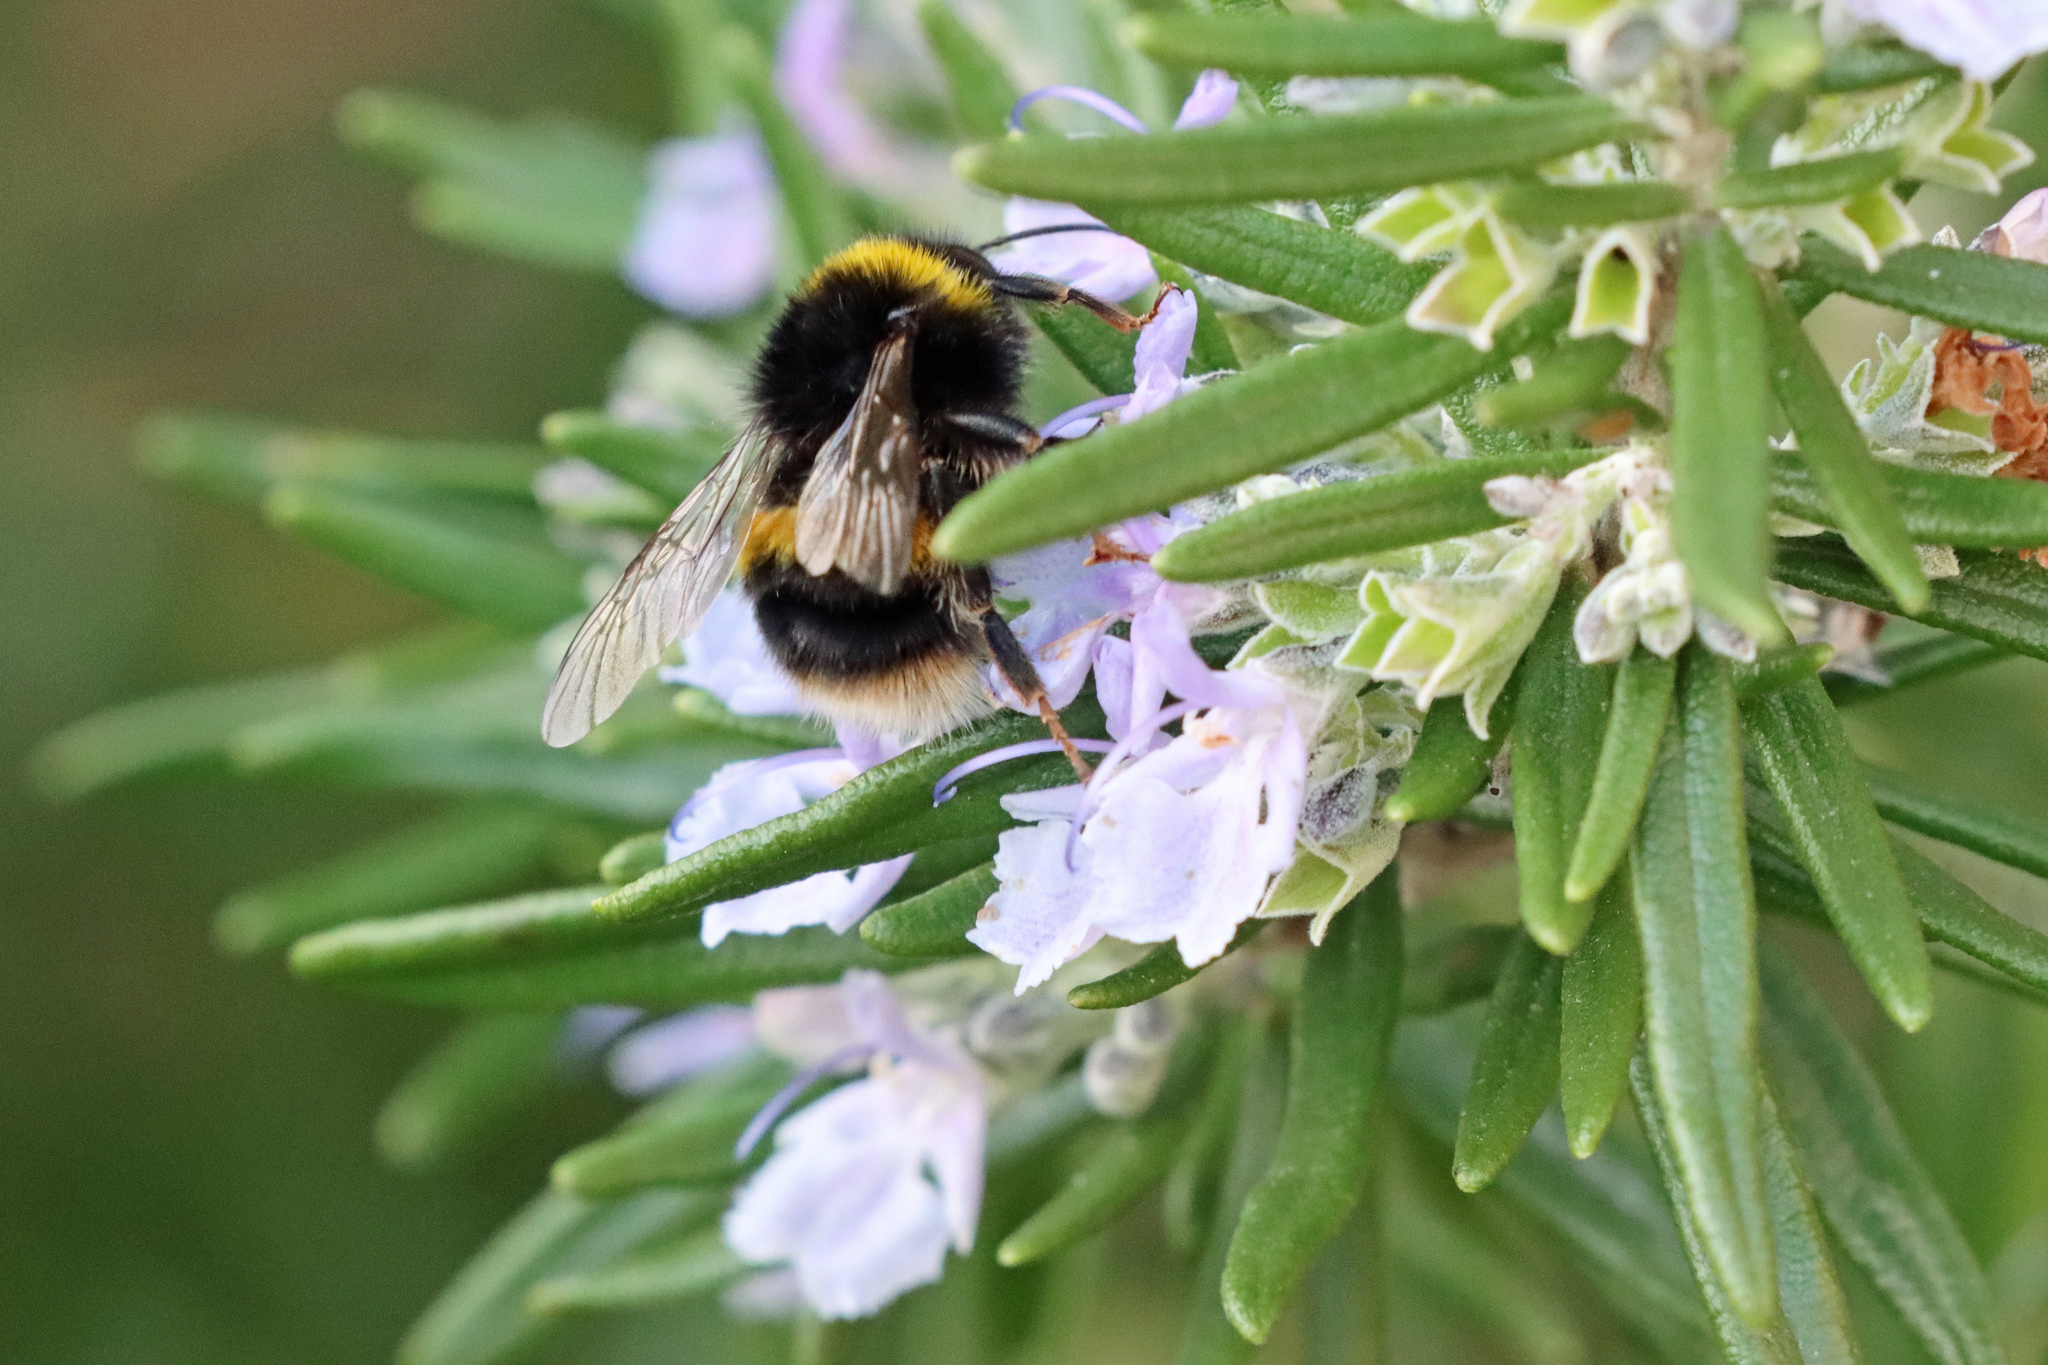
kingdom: Animalia
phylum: Arthropoda
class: Insecta
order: Hymenoptera
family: Apidae
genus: Bombus
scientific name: Bombus terrestris
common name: Buff-tailed bumblebee
